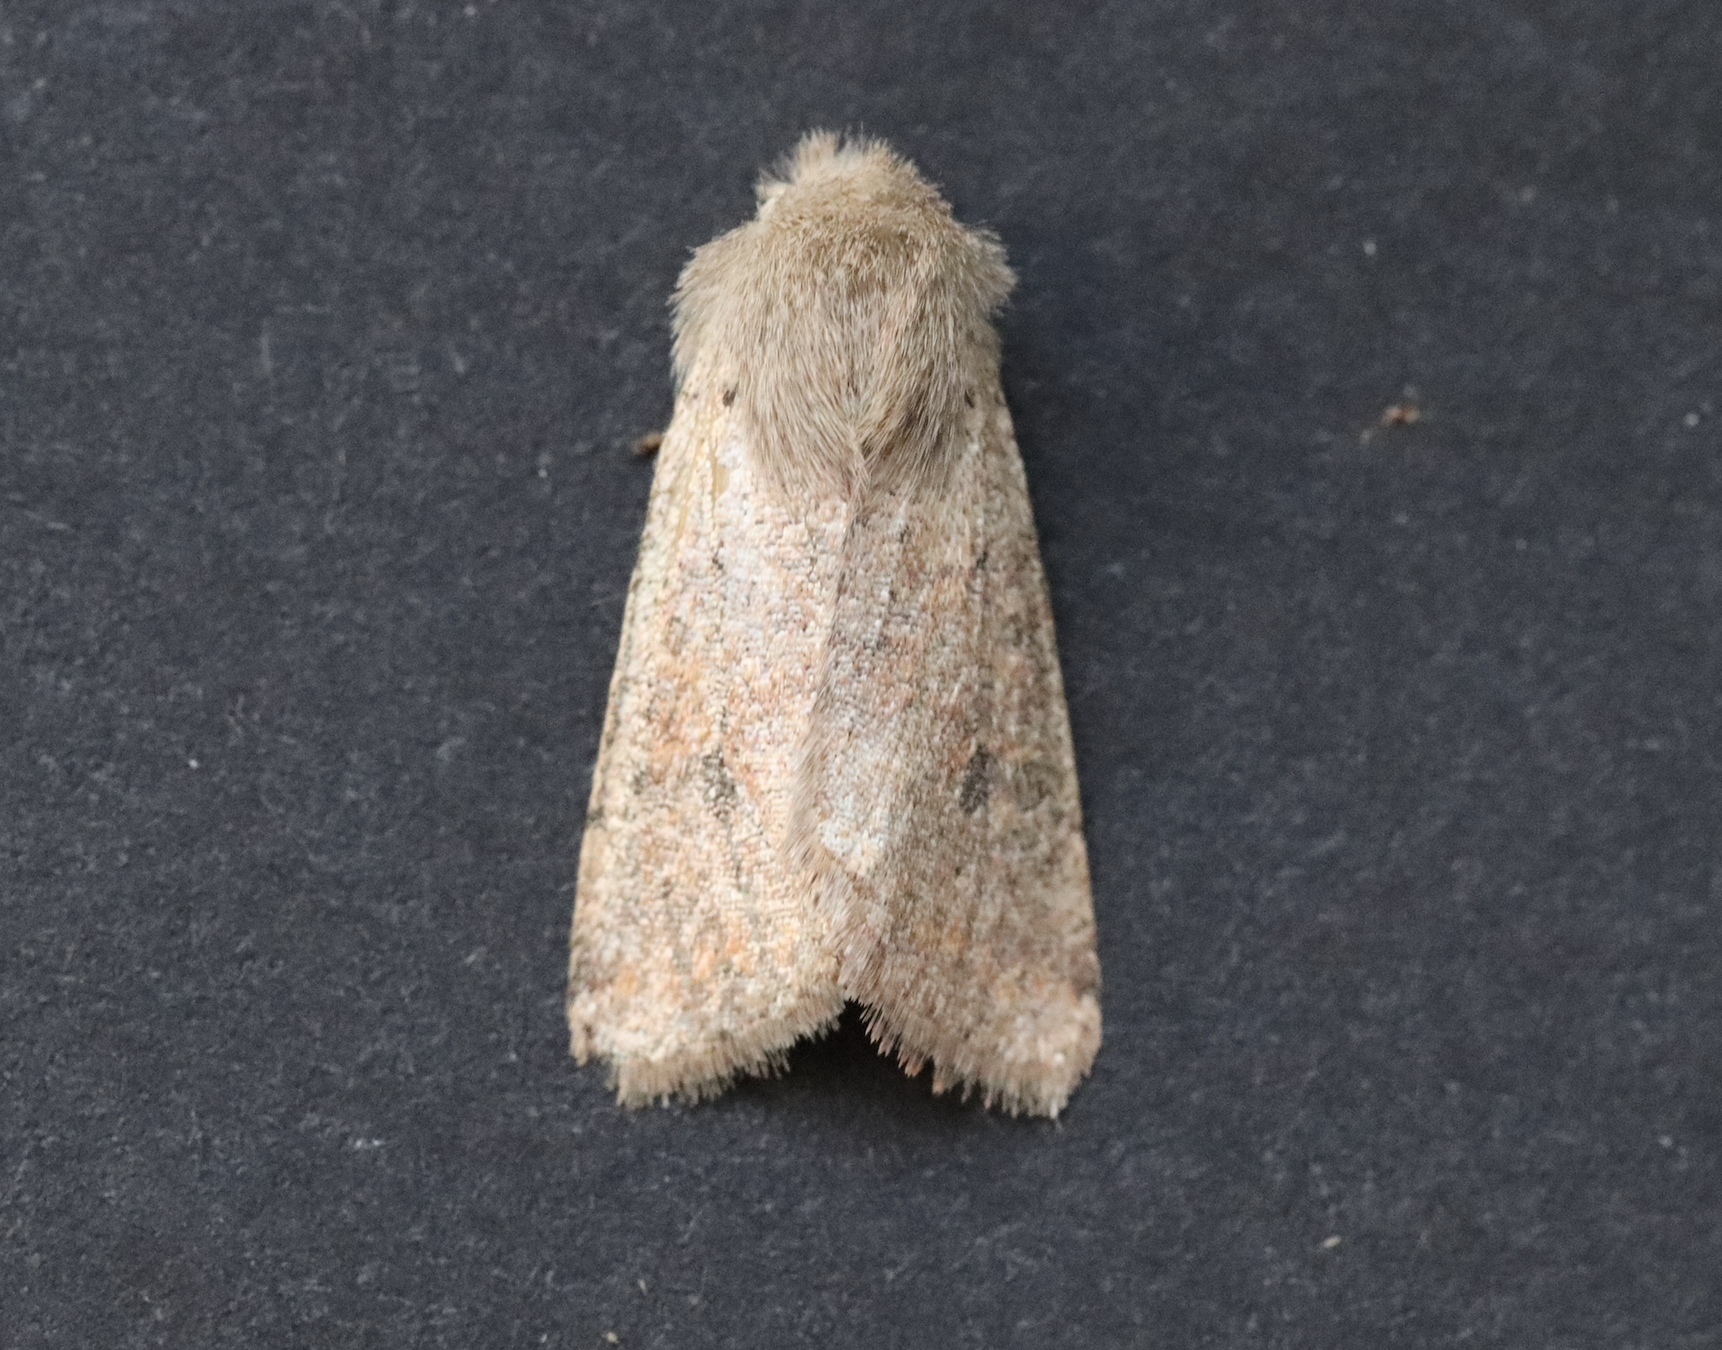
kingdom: Animalia
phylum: Arthropoda
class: Insecta
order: Lepidoptera
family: Noctuidae
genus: Orthosia
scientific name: Orthosia cruda
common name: Small quaker
